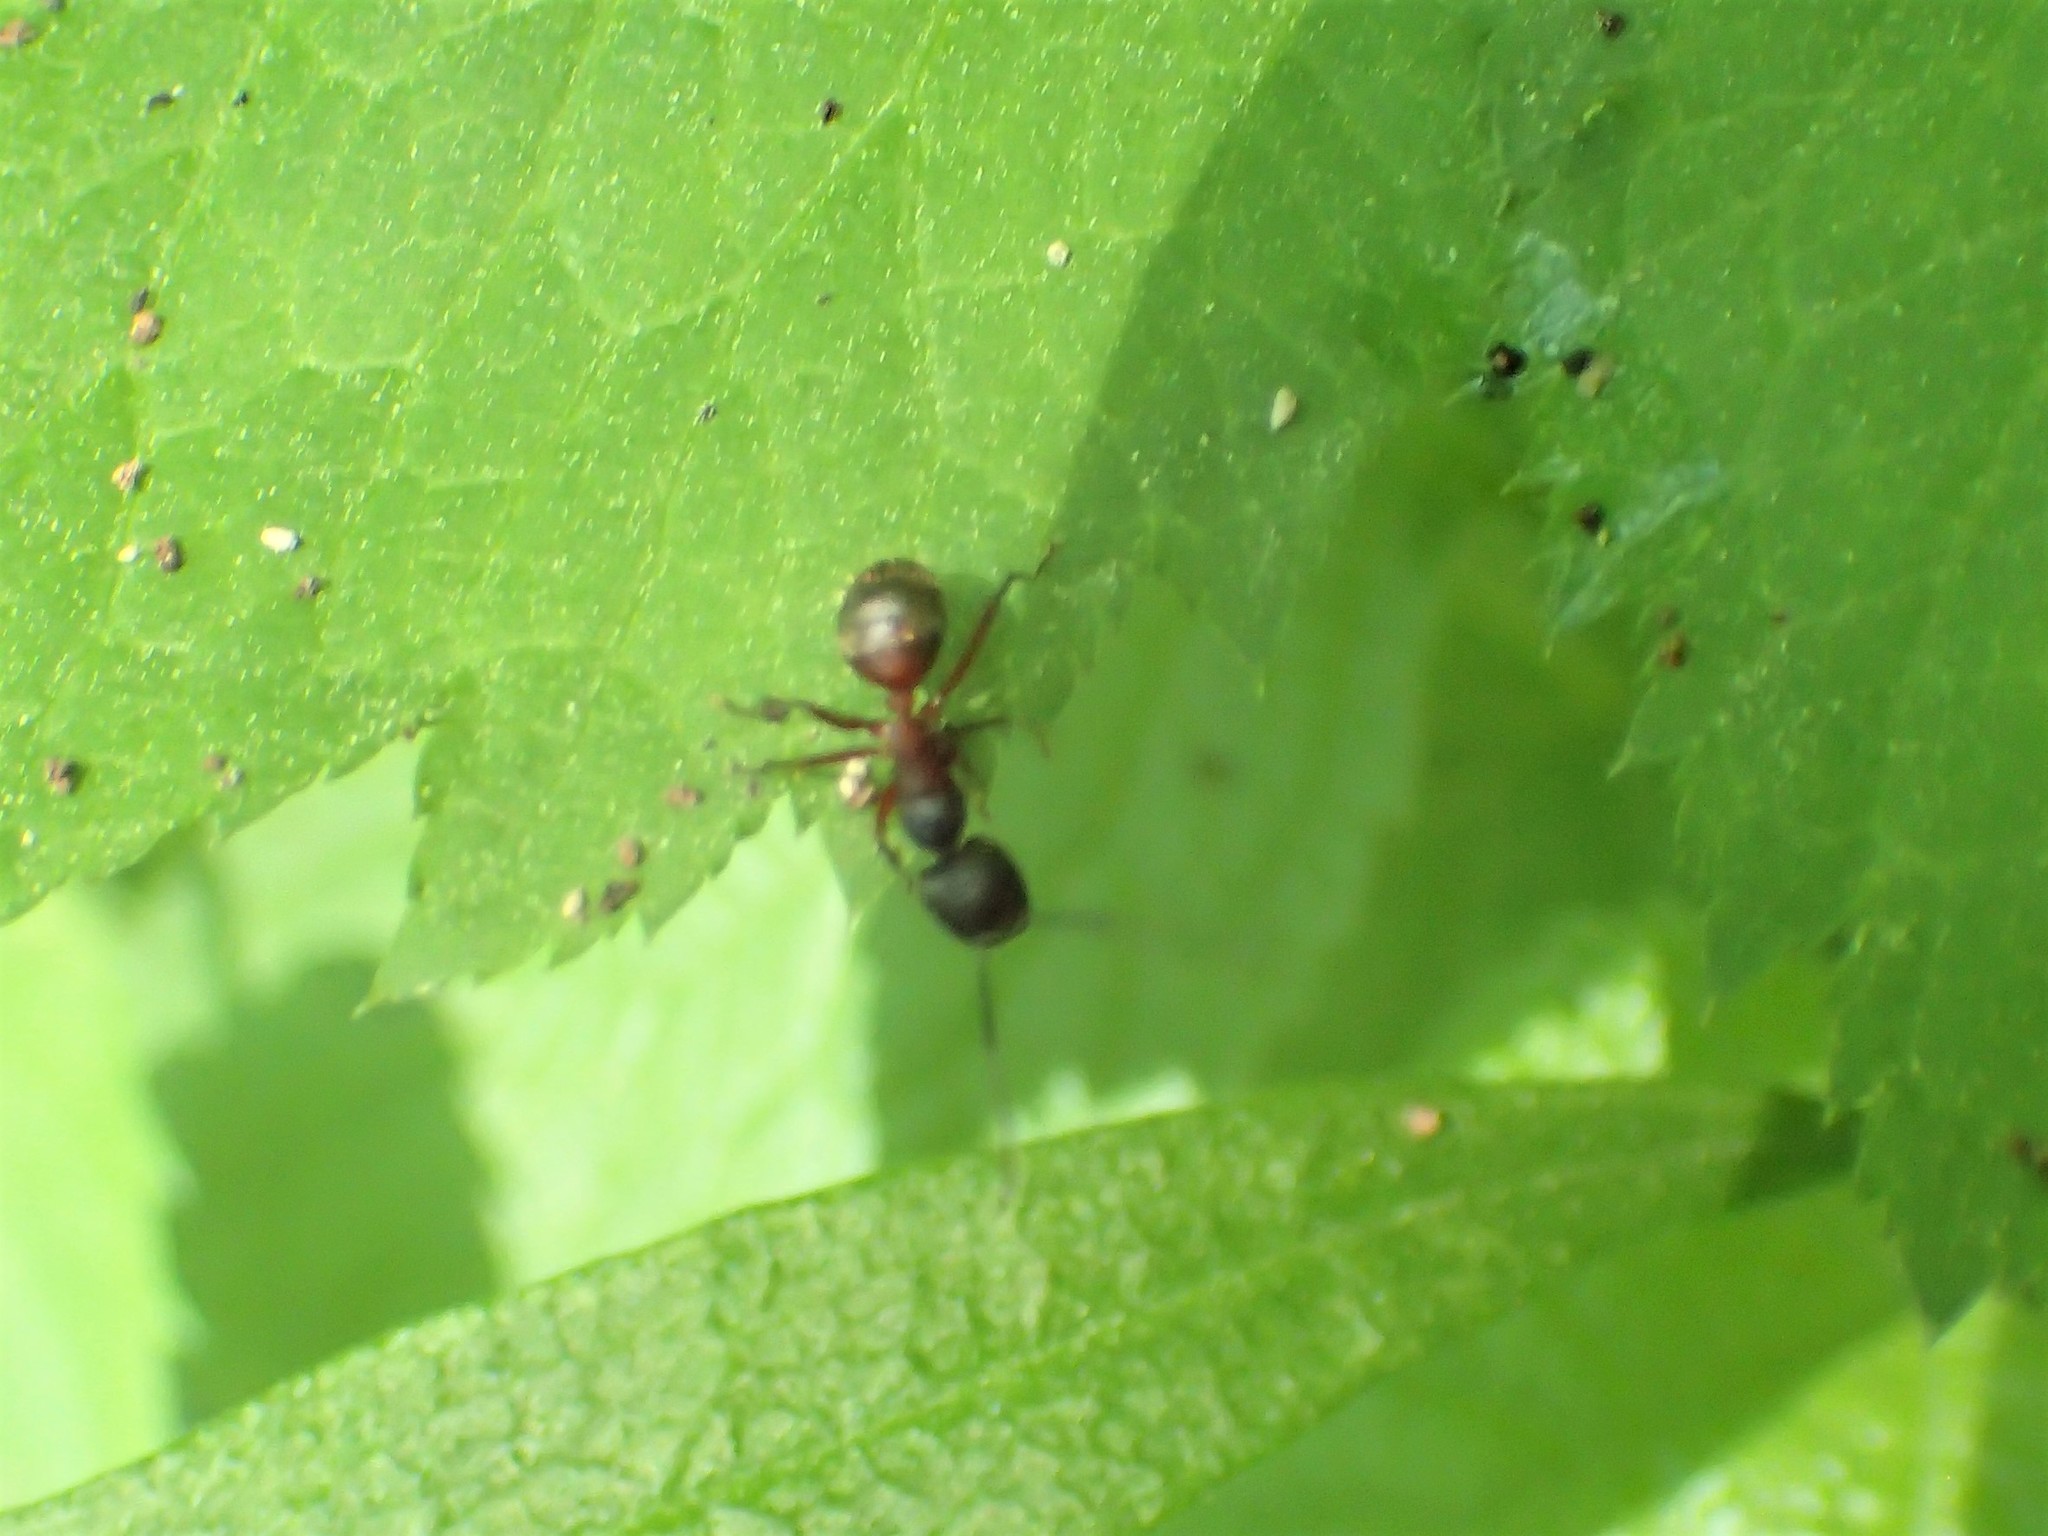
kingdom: Animalia
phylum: Arthropoda
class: Insecta
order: Hymenoptera
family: Formicidae
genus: Camponotus
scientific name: Camponotus chromaiodes
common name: Red carpenter ant
